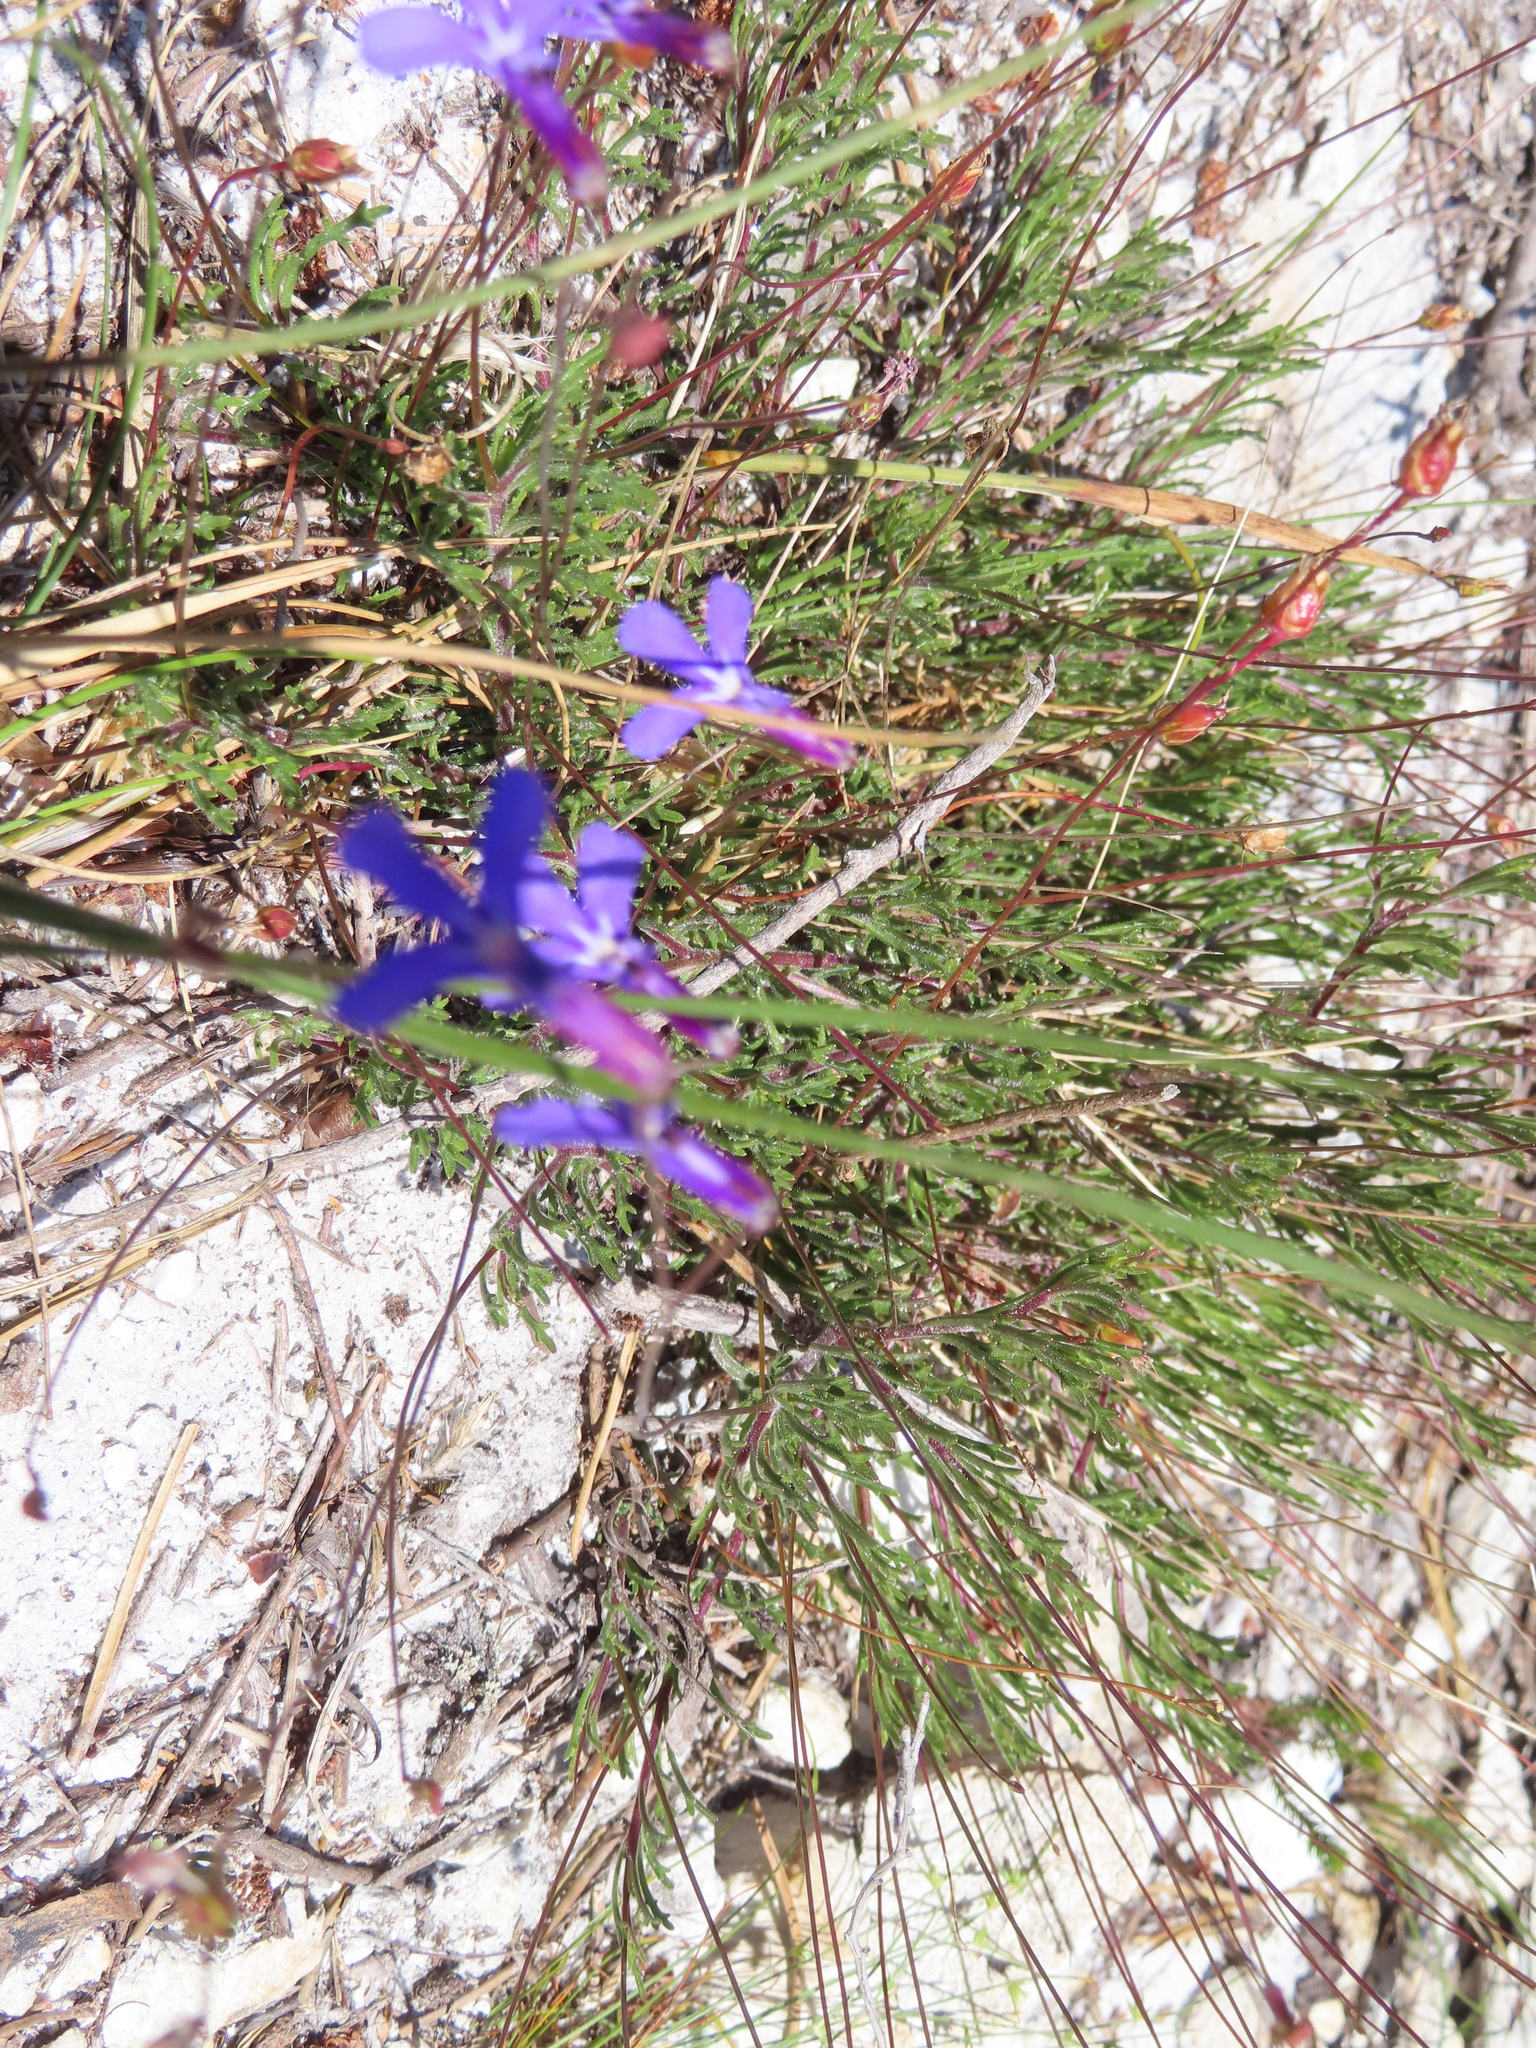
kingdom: Plantae
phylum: Tracheophyta
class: Magnoliopsida
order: Asterales
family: Campanulaceae
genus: Lobelia
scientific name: Lobelia chamaepitys
